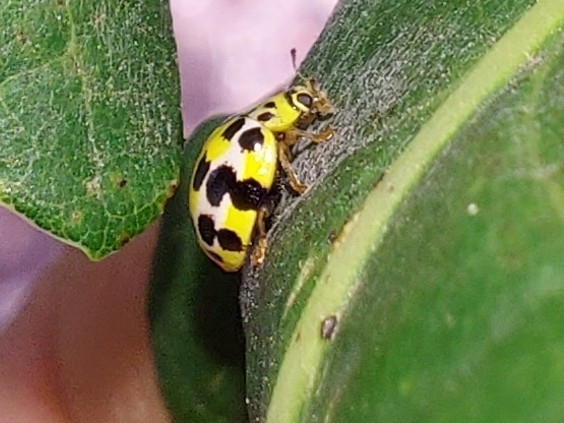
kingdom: Animalia
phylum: Arthropoda
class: Insecta
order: Coleoptera
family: Coccinellidae
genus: Psyllobora
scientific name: Psyllobora variegata
